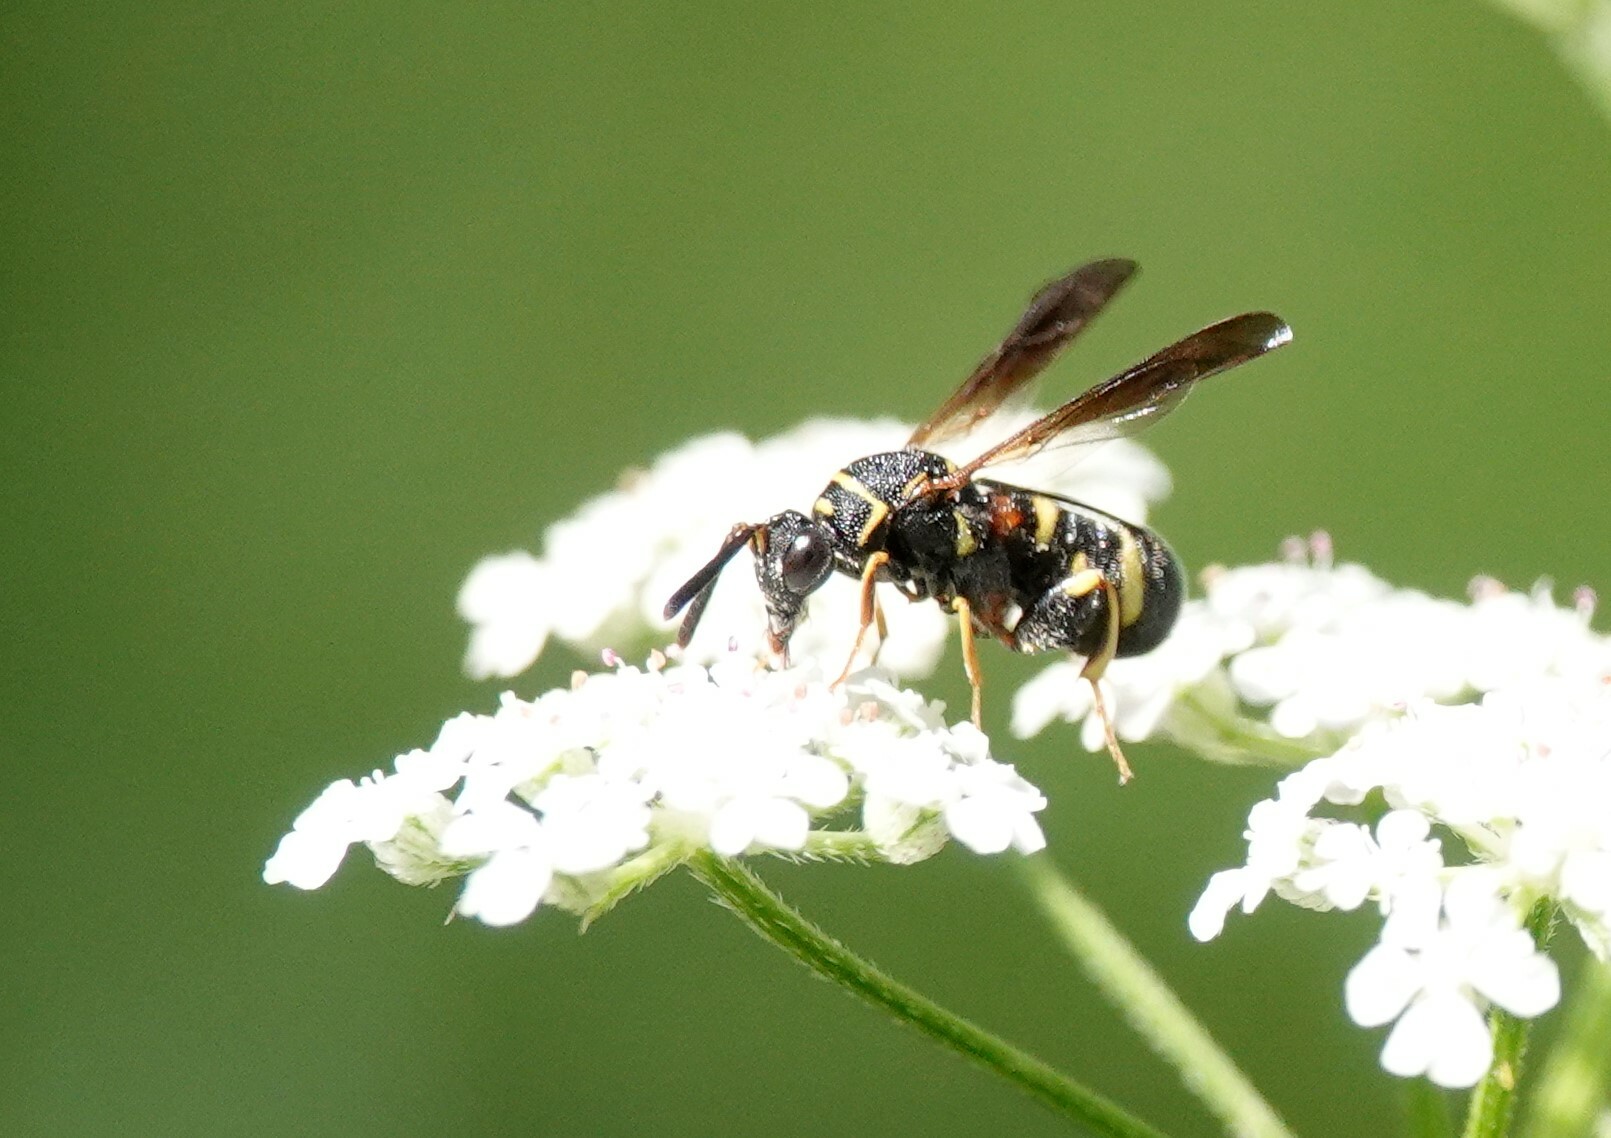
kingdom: Animalia
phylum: Arthropoda
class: Insecta
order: Hymenoptera
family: Leucospidae
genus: Leucospis
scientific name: Leucospis affinis
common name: Wasp
